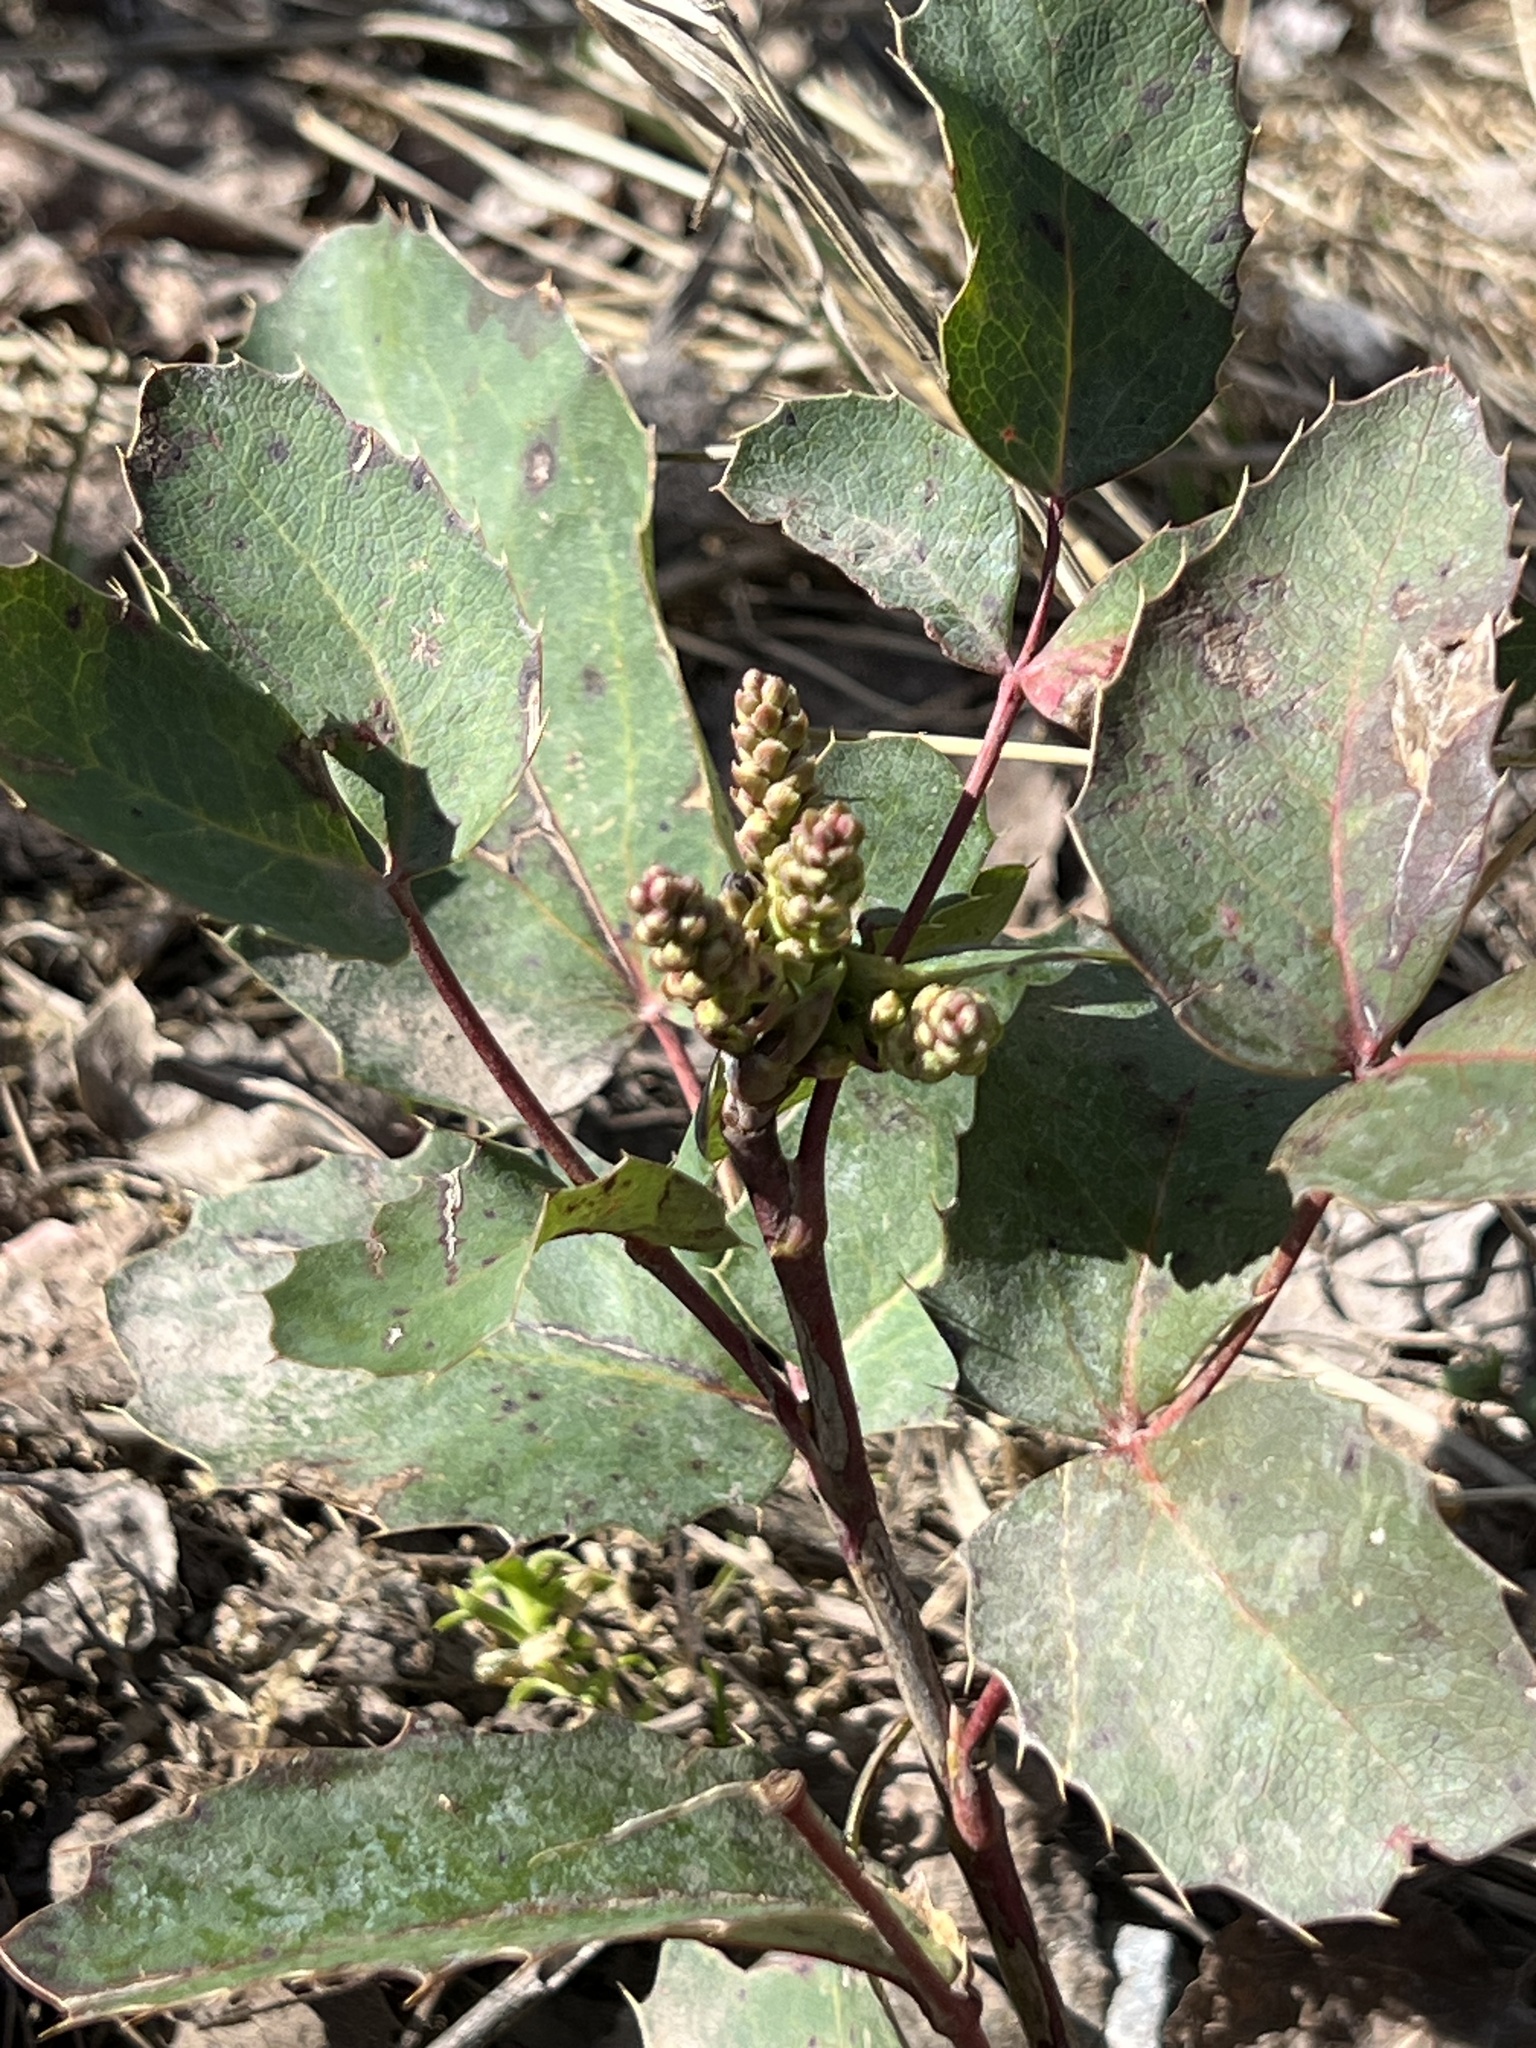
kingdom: Plantae
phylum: Tracheophyta
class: Magnoliopsida
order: Ranunculales
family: Berberidaceae
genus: Mahonia
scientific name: Mahonia repens
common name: Creeping oregon-grape
